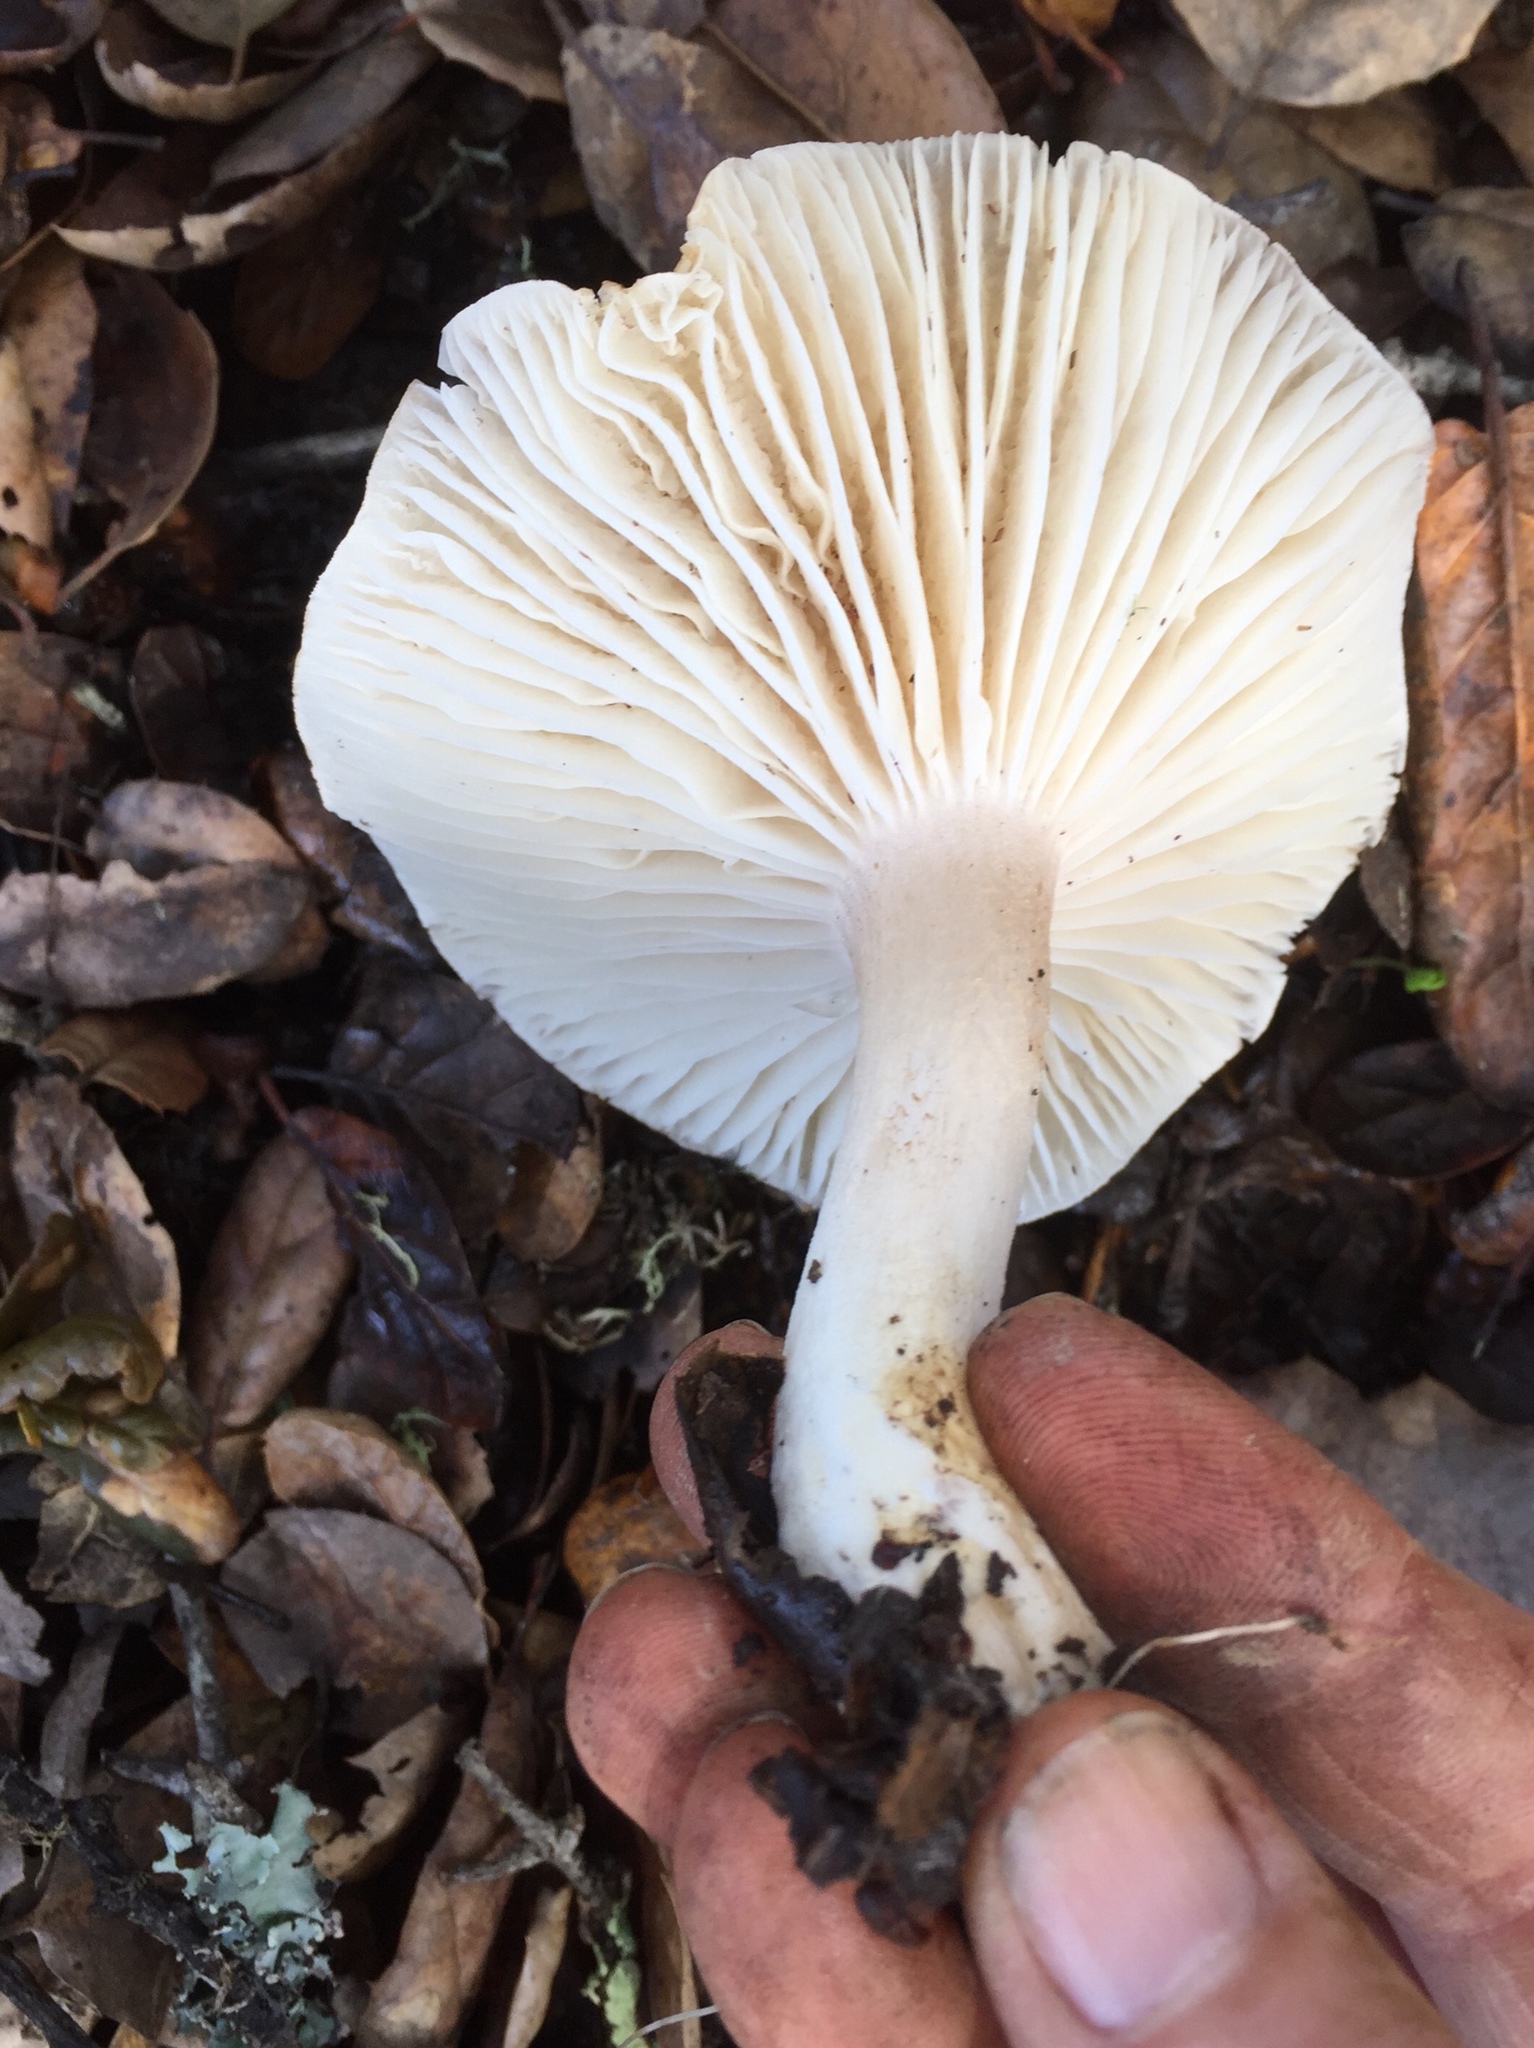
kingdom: Fungi
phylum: Basidiomycota
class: Agaricomycetes
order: Agaricales
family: Hygrophoraceae
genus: Hygrophorus
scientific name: Hygrophorus roseobrunneus
